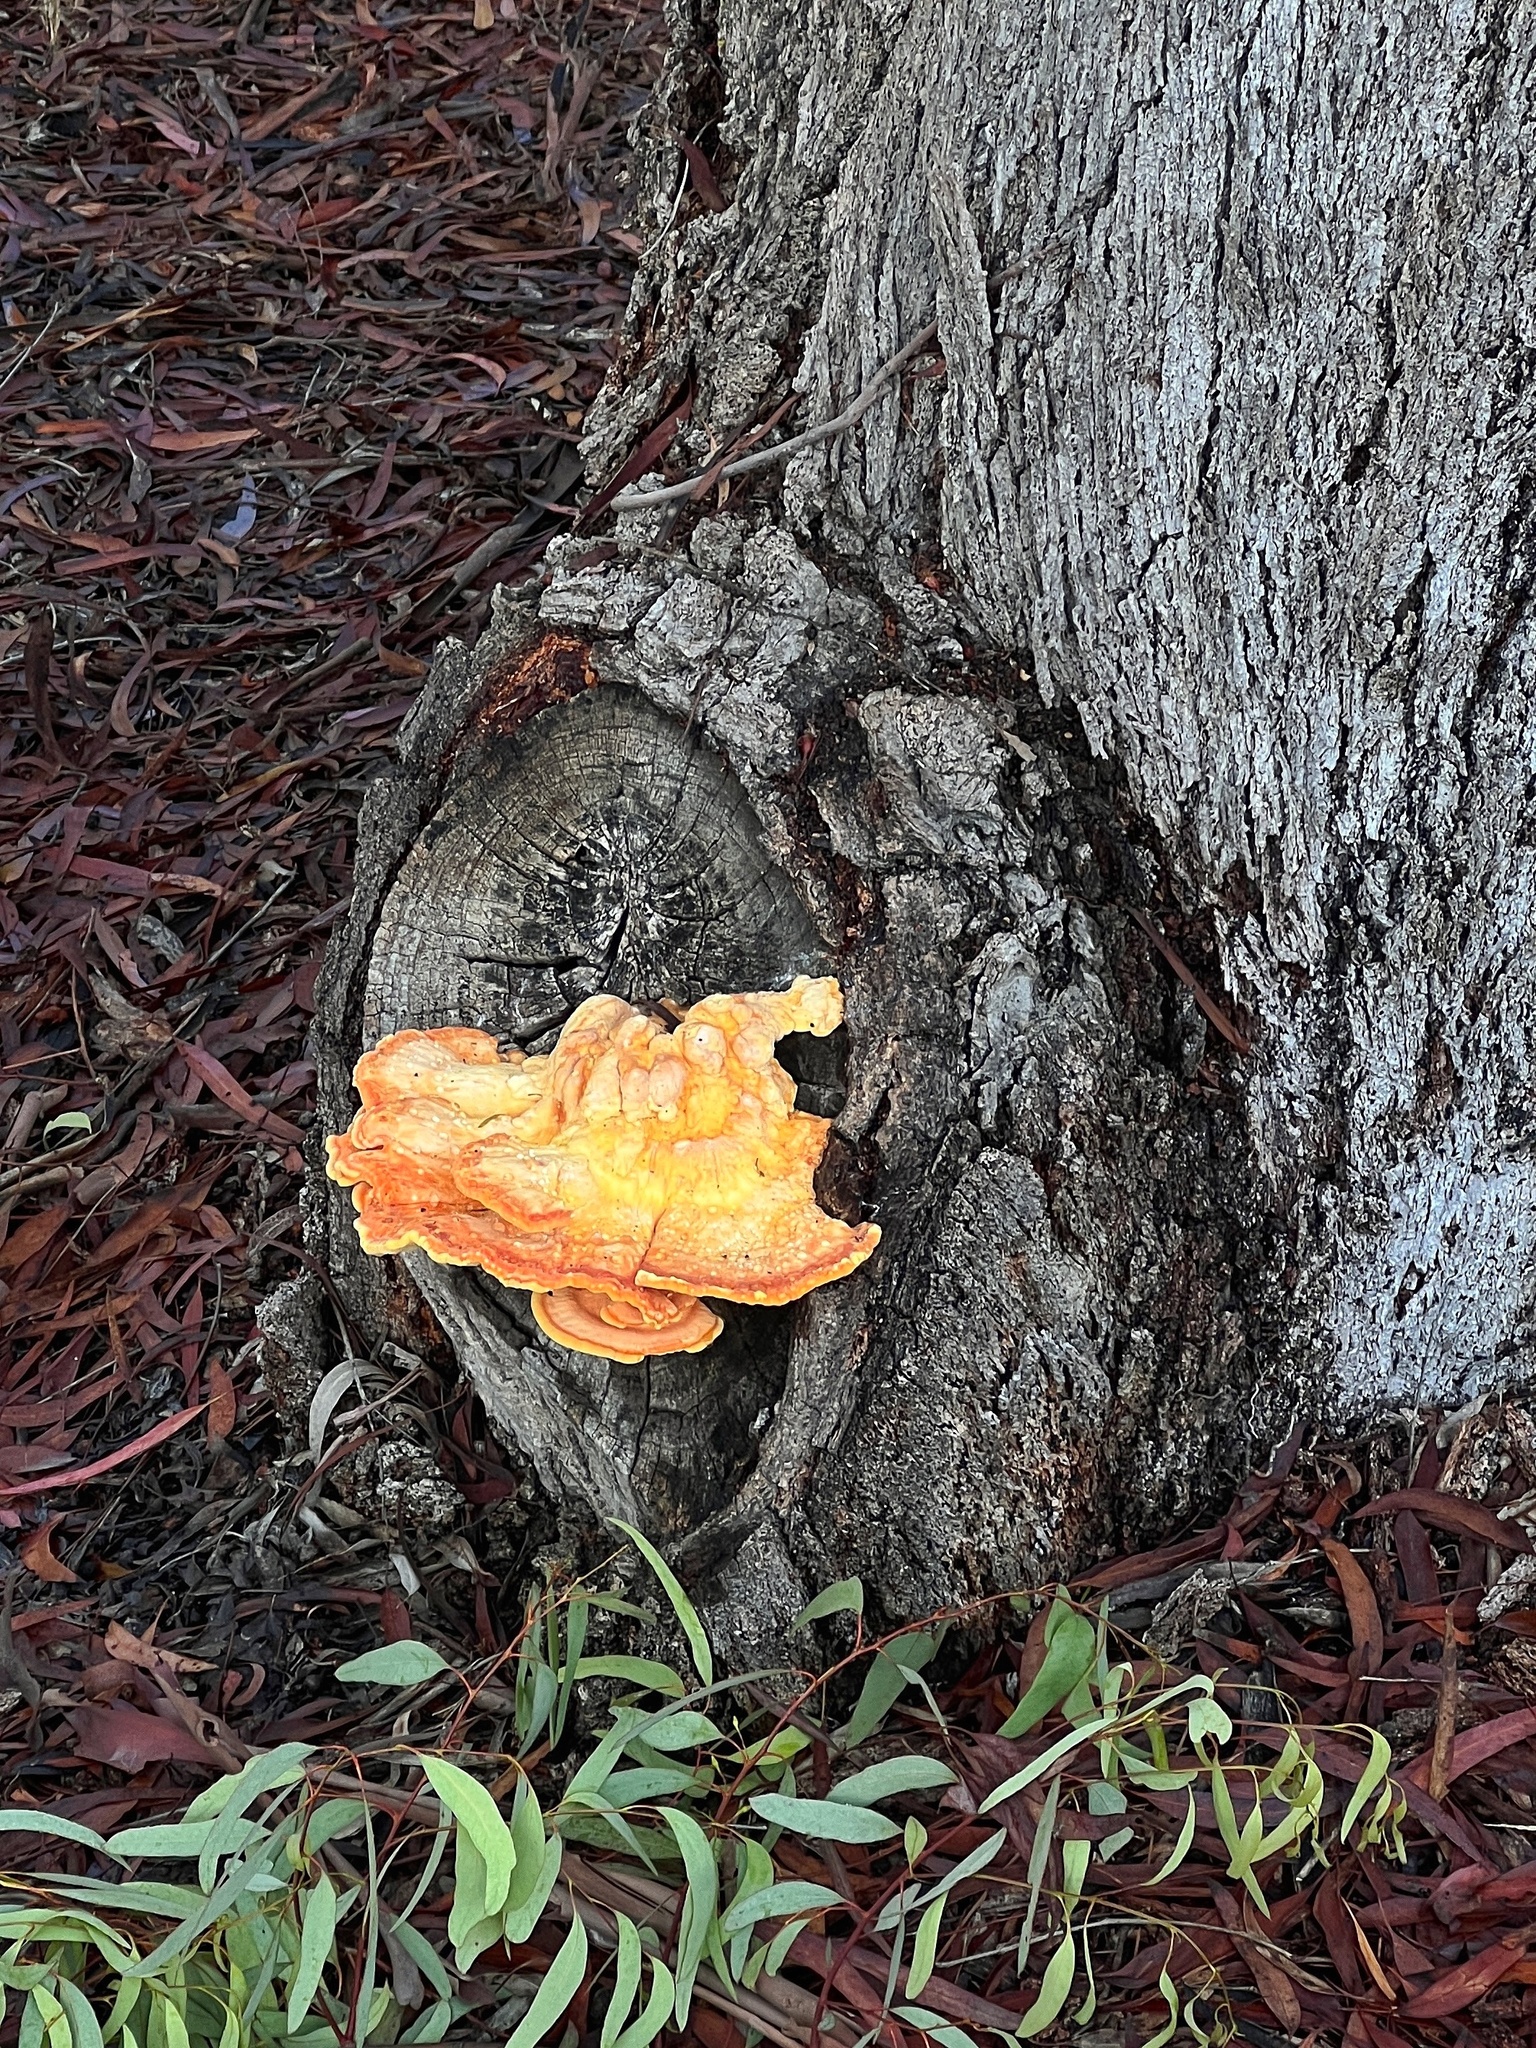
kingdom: Fungi
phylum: Basidiomycota
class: Agaricomycetes
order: Polyporales
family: Laetiporaceae
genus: Laetiporus
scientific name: Laetiporus gilbertsonii
